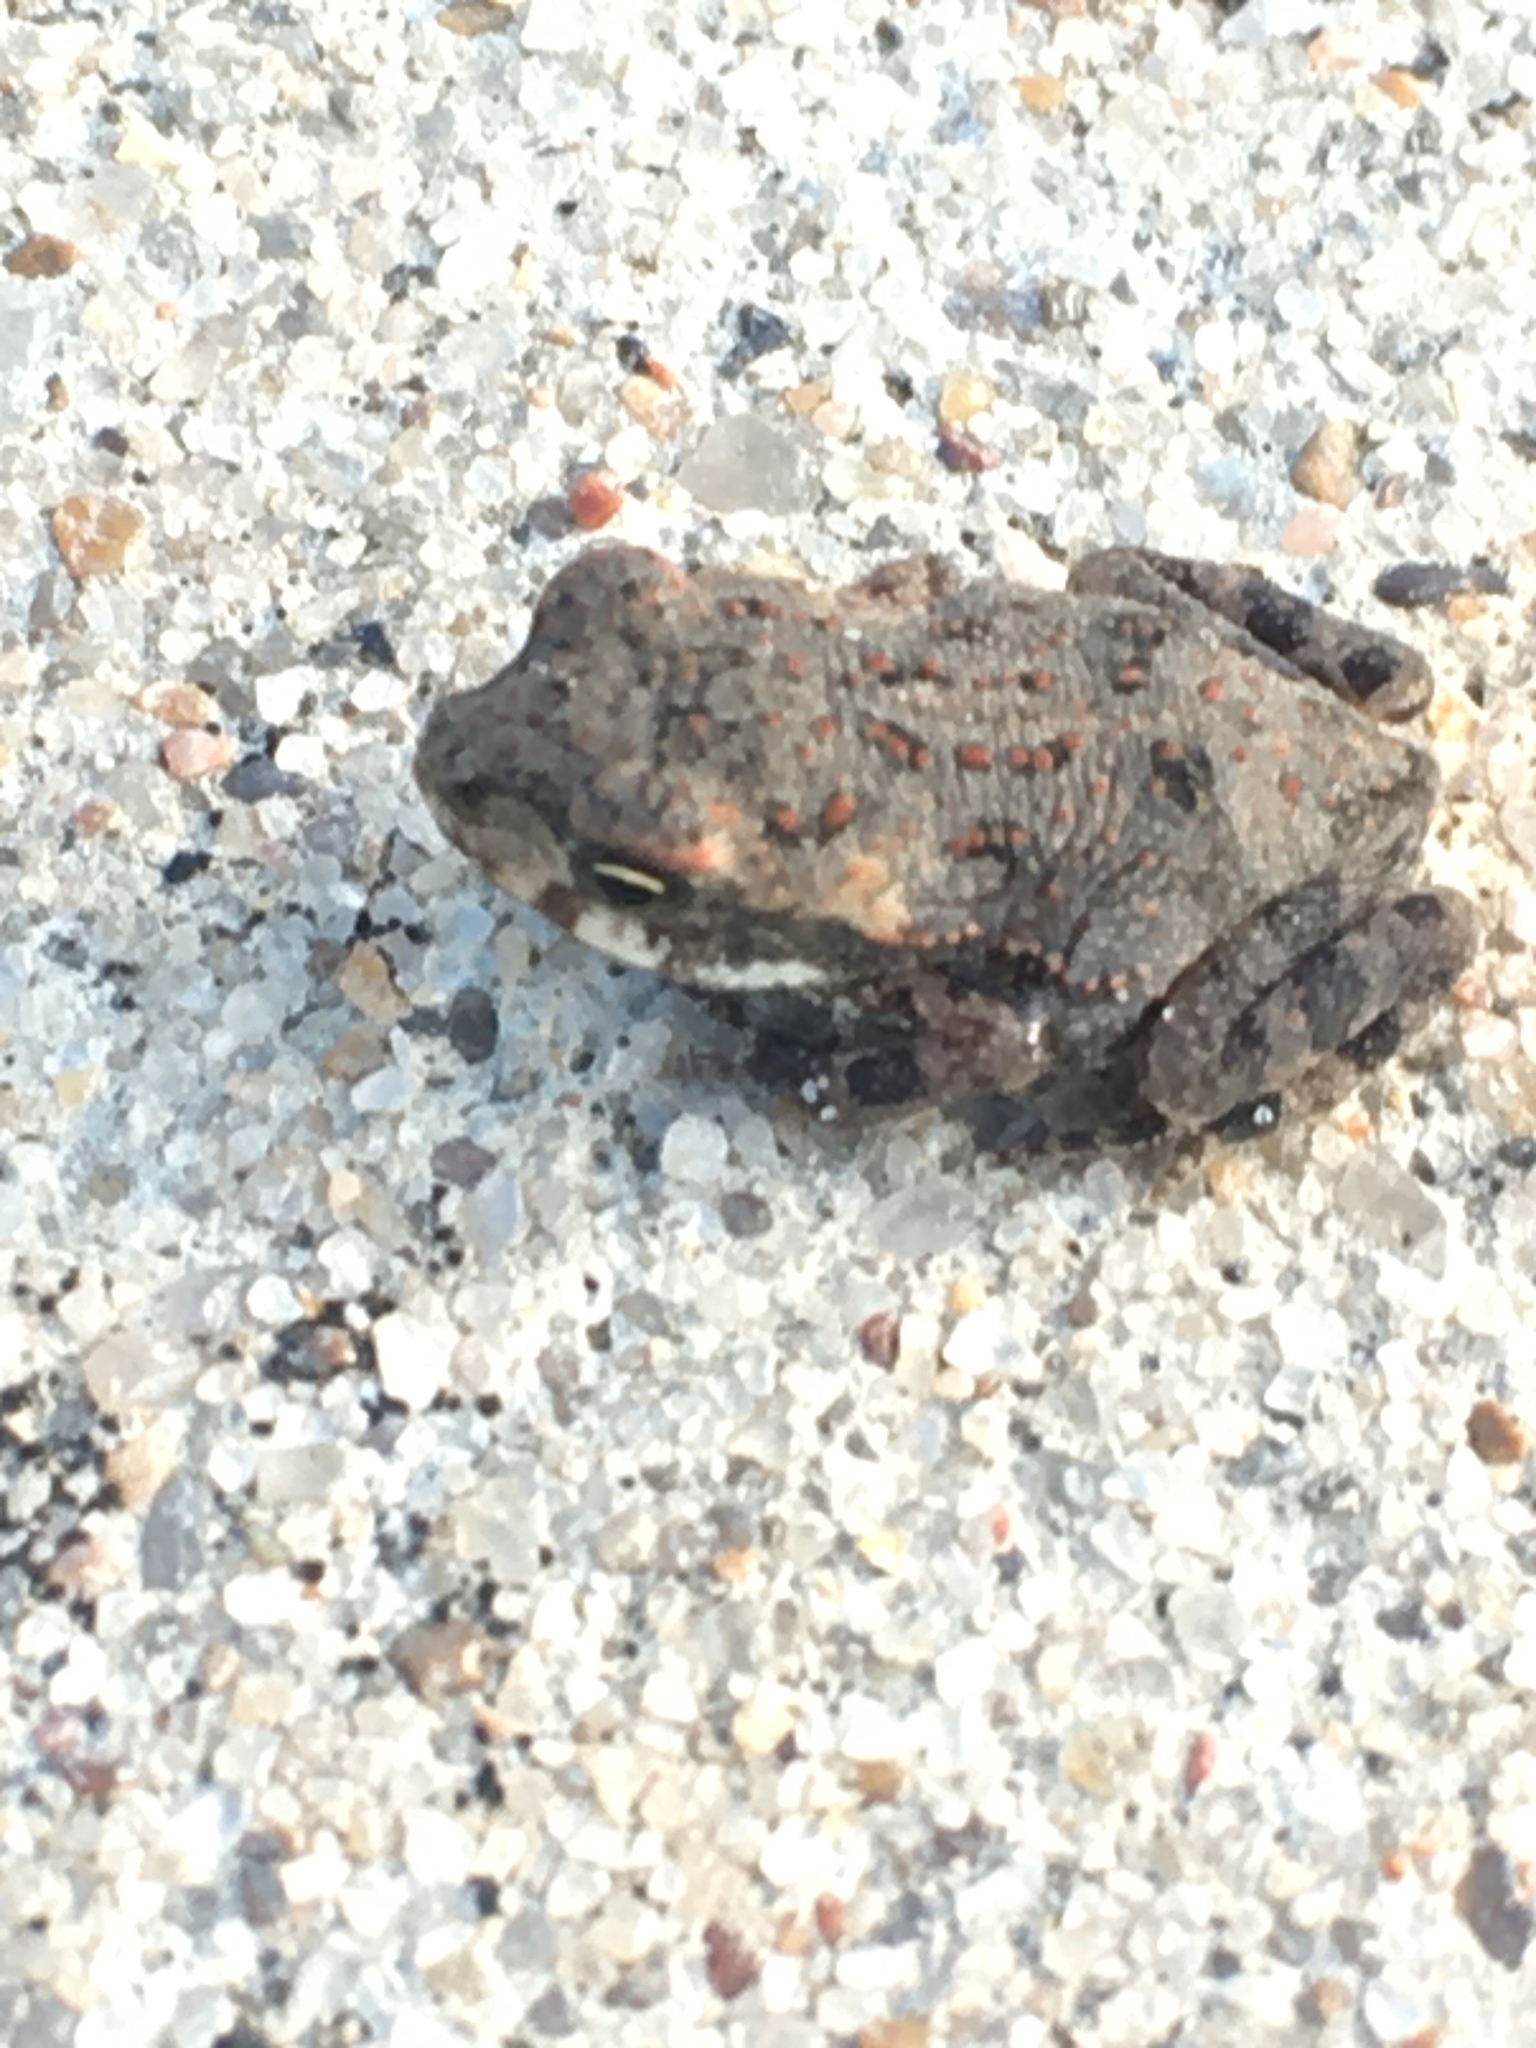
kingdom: Animalia
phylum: Chordata
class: Amphibia
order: Anura
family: Bufonidae
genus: Incilius
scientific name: Incilius nebulifer
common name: Gulf coast toad
